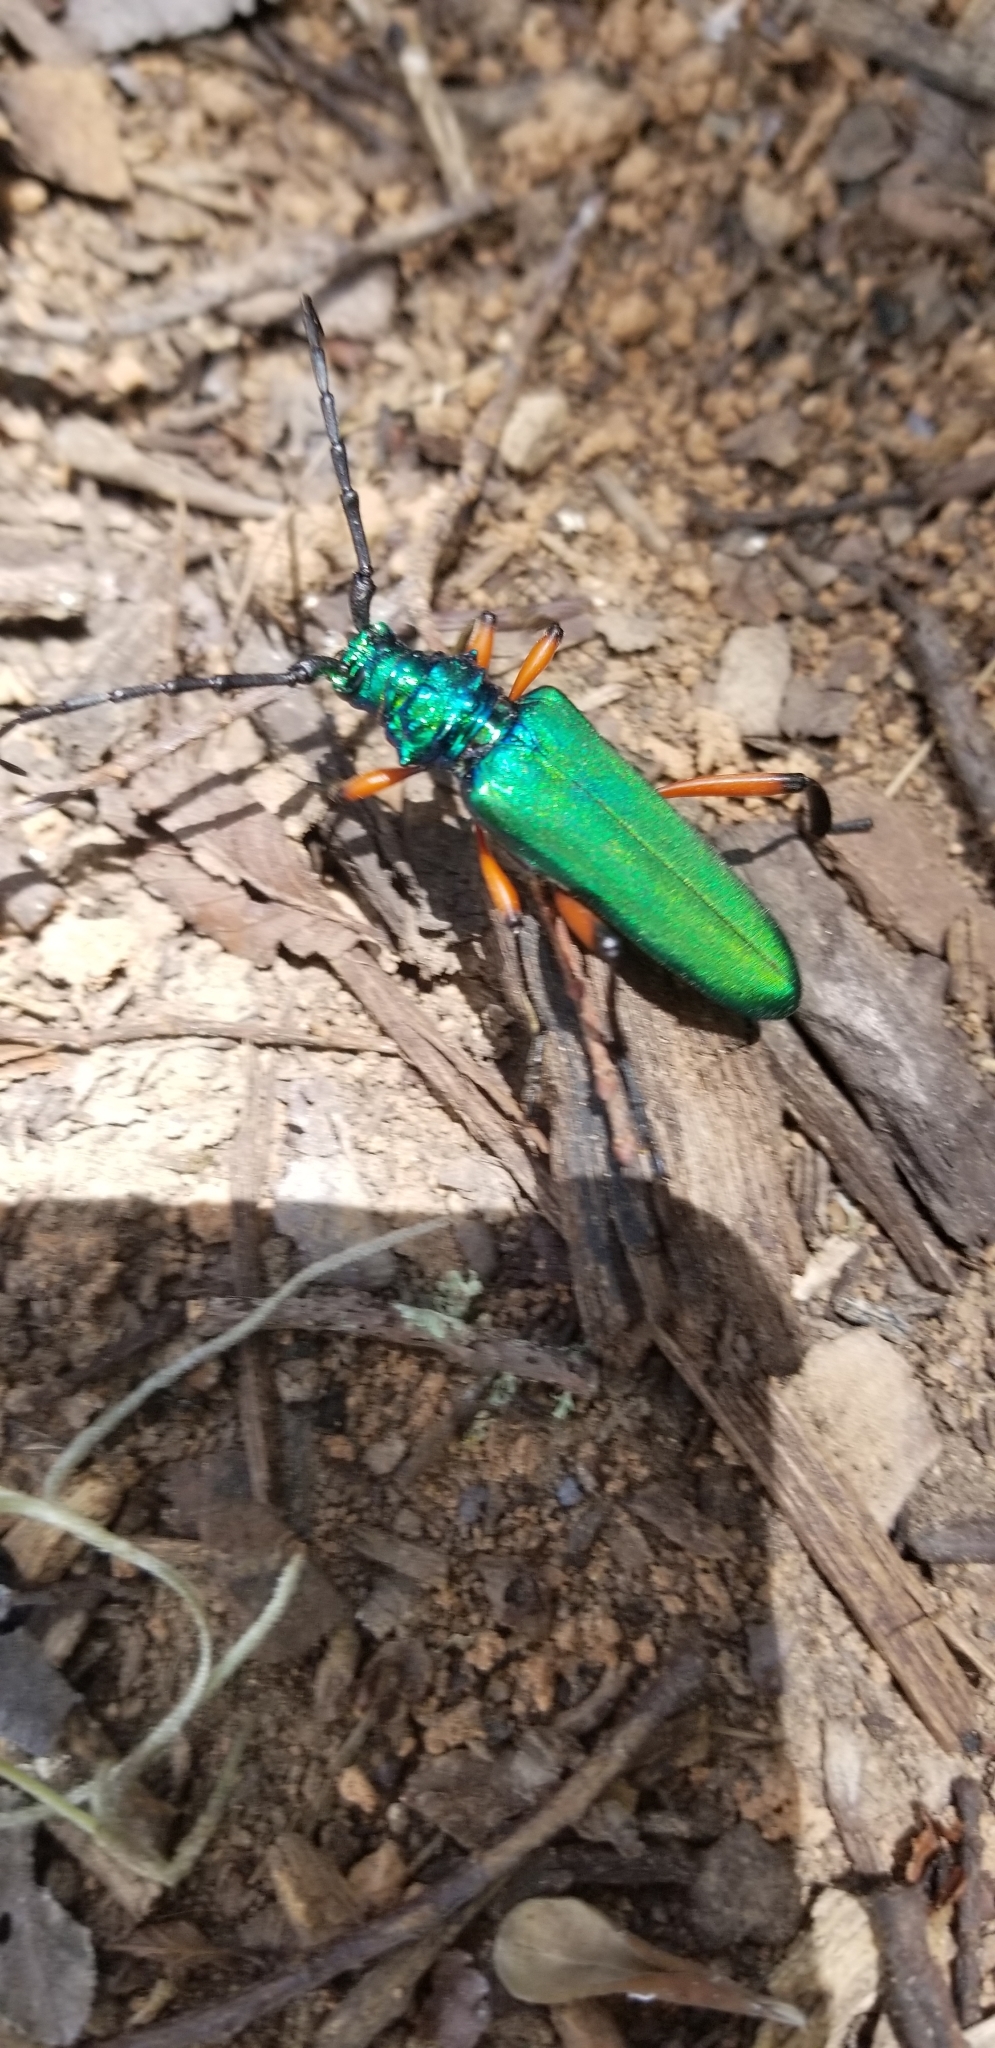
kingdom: Animalia
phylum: Arthropoda
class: Insecta
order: Coleoptera
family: Cerambycidae
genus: Plinthocoelium
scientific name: Plinthocoelium suaveolens
